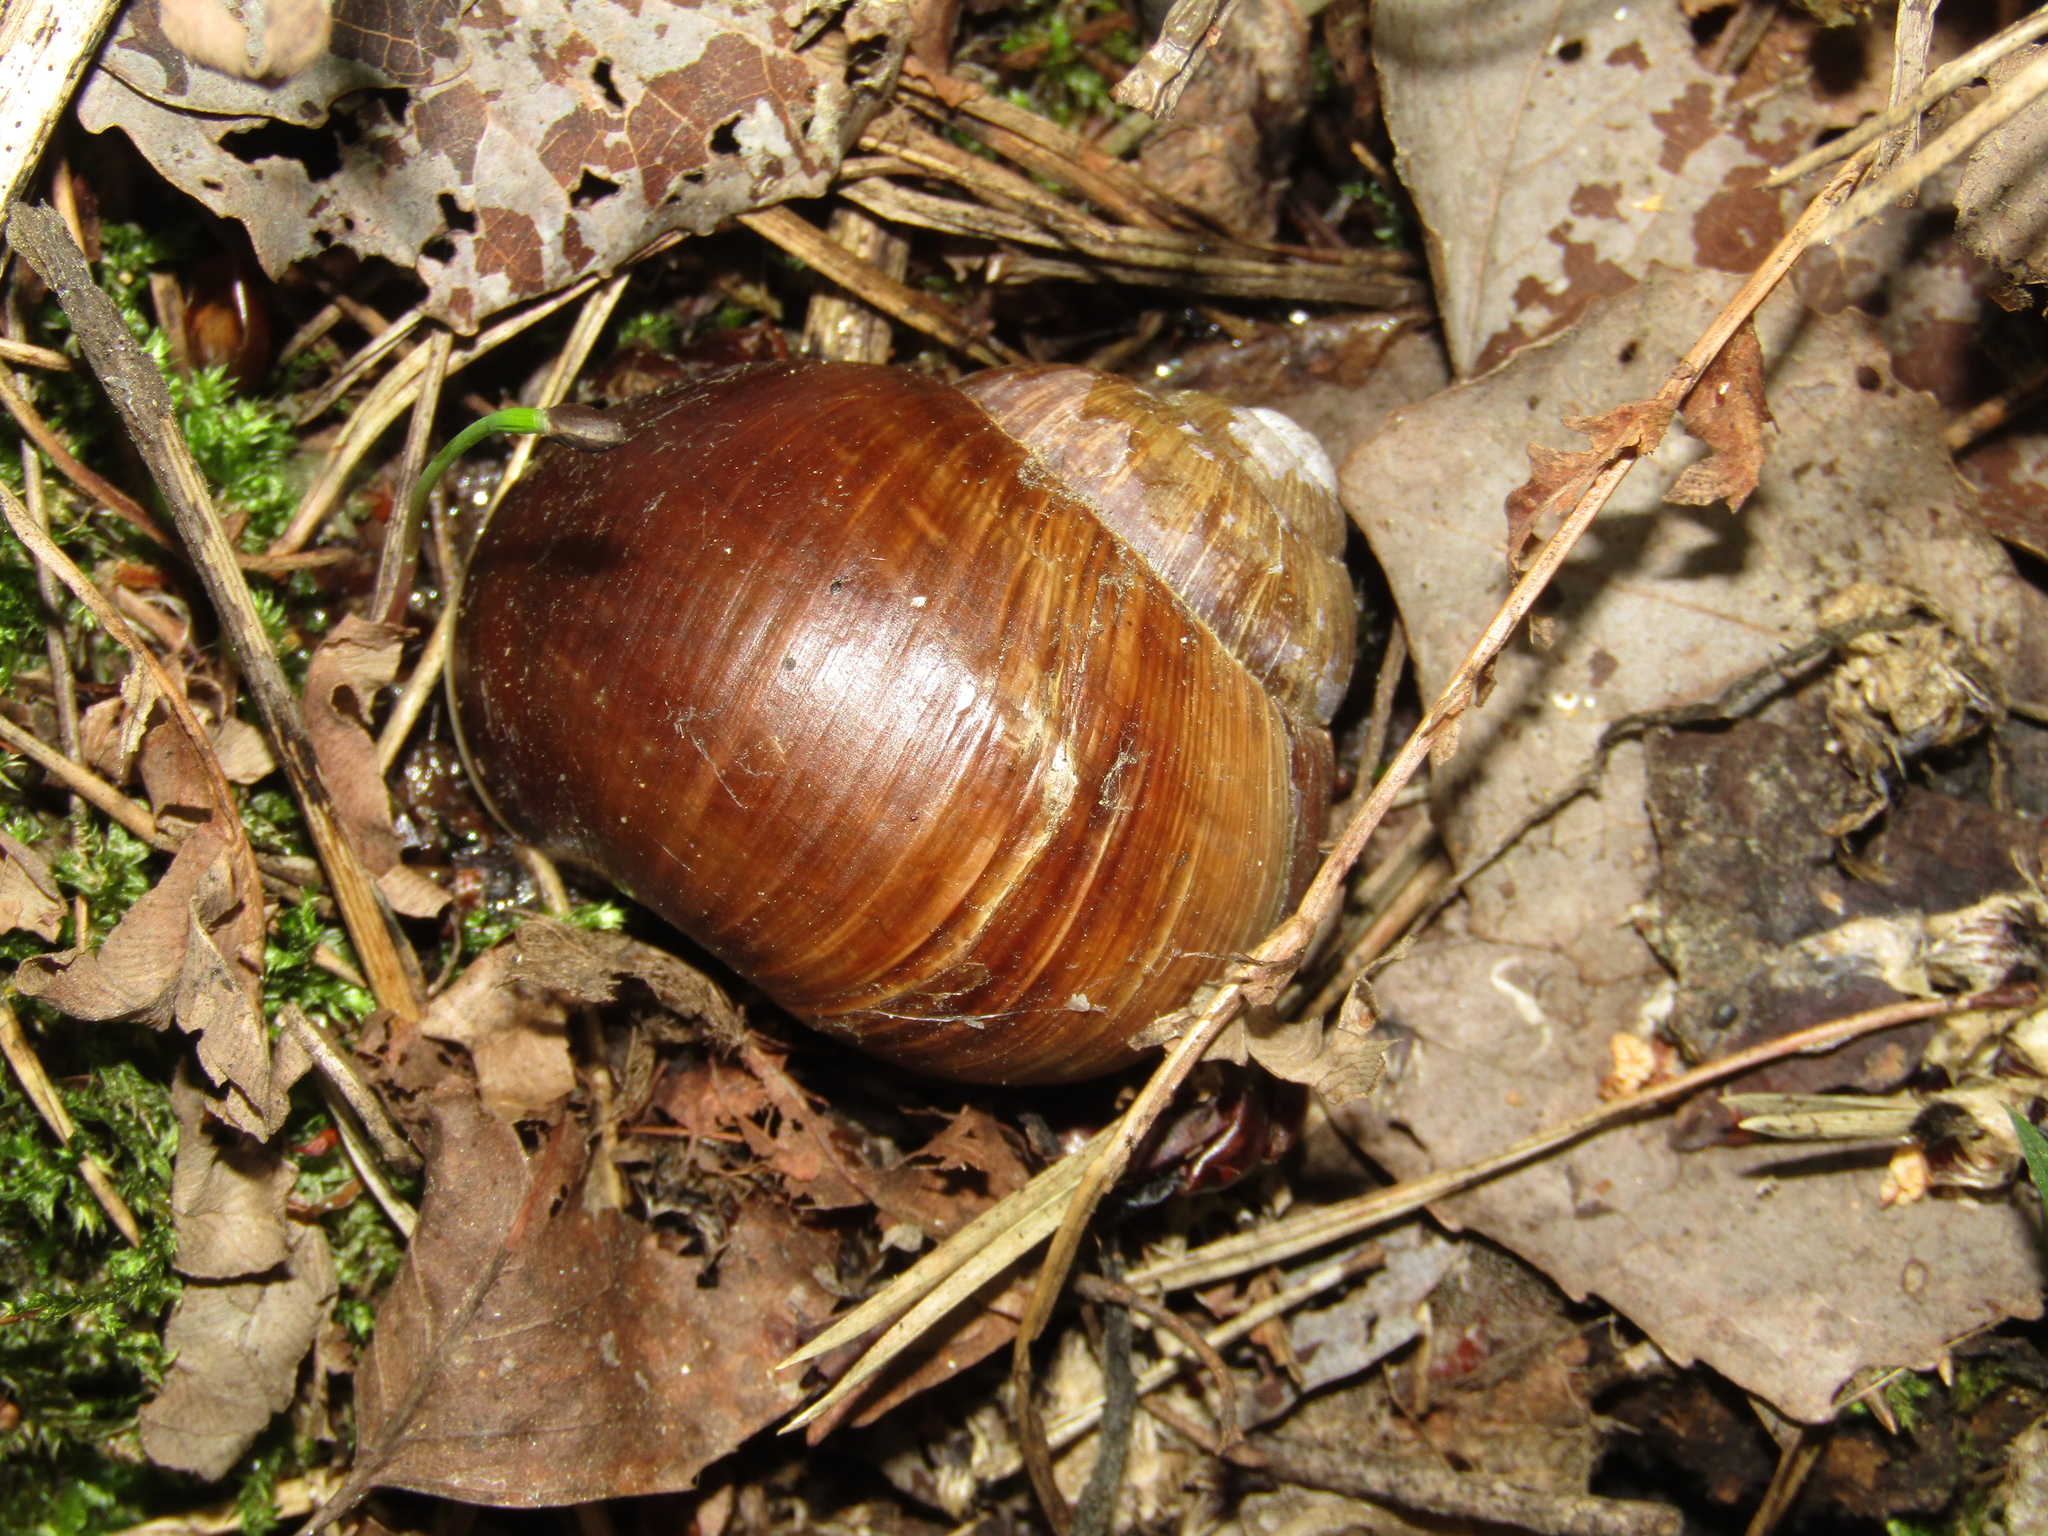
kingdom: Animalia
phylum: Mollusca
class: Gastropoda
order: Stylommatophora
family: Helicidae
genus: Helix
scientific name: Helix pomatia
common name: Roman snail
